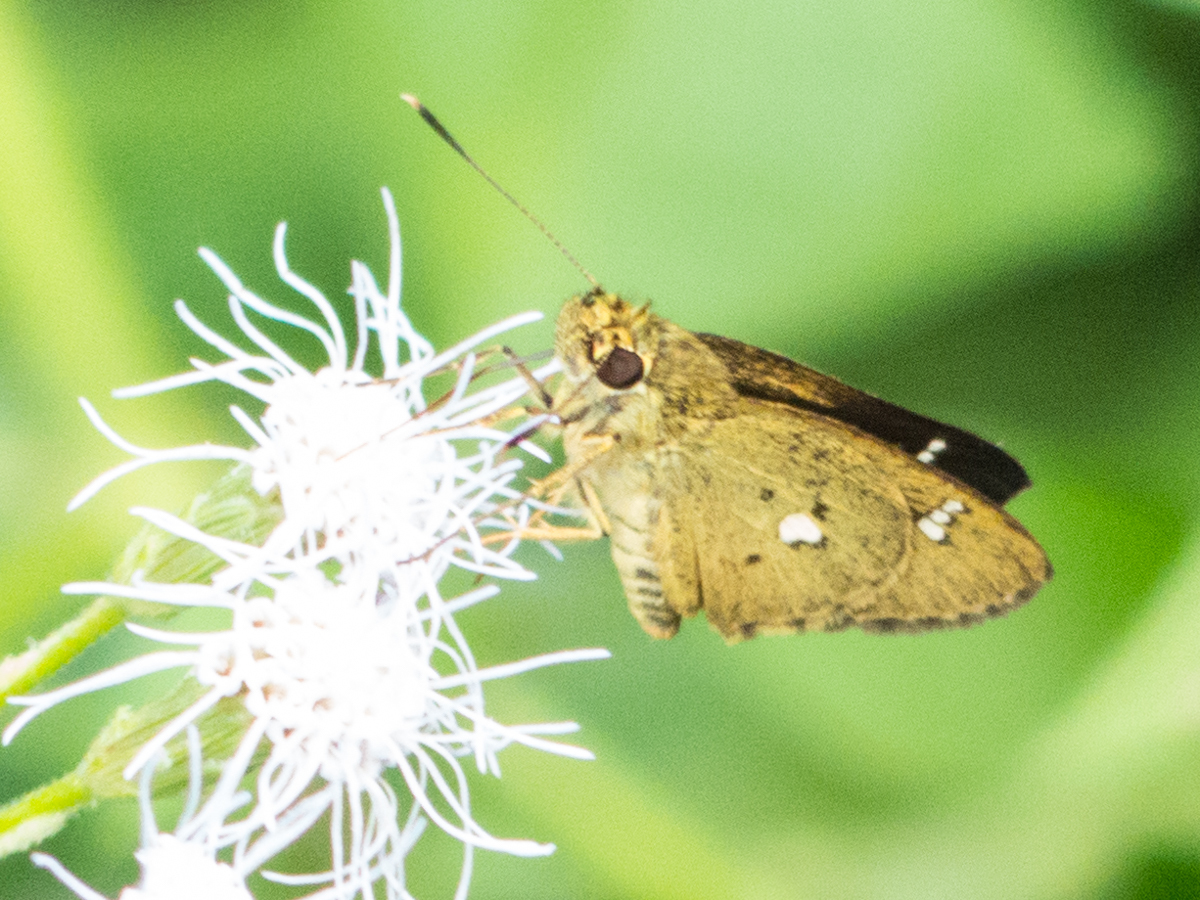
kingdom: Animalia
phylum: Arthropoda
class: Insecta
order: Lepidoptera
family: Hesperiidae
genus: Scobura
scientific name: Scobura phiditia
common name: Malay forest bob
